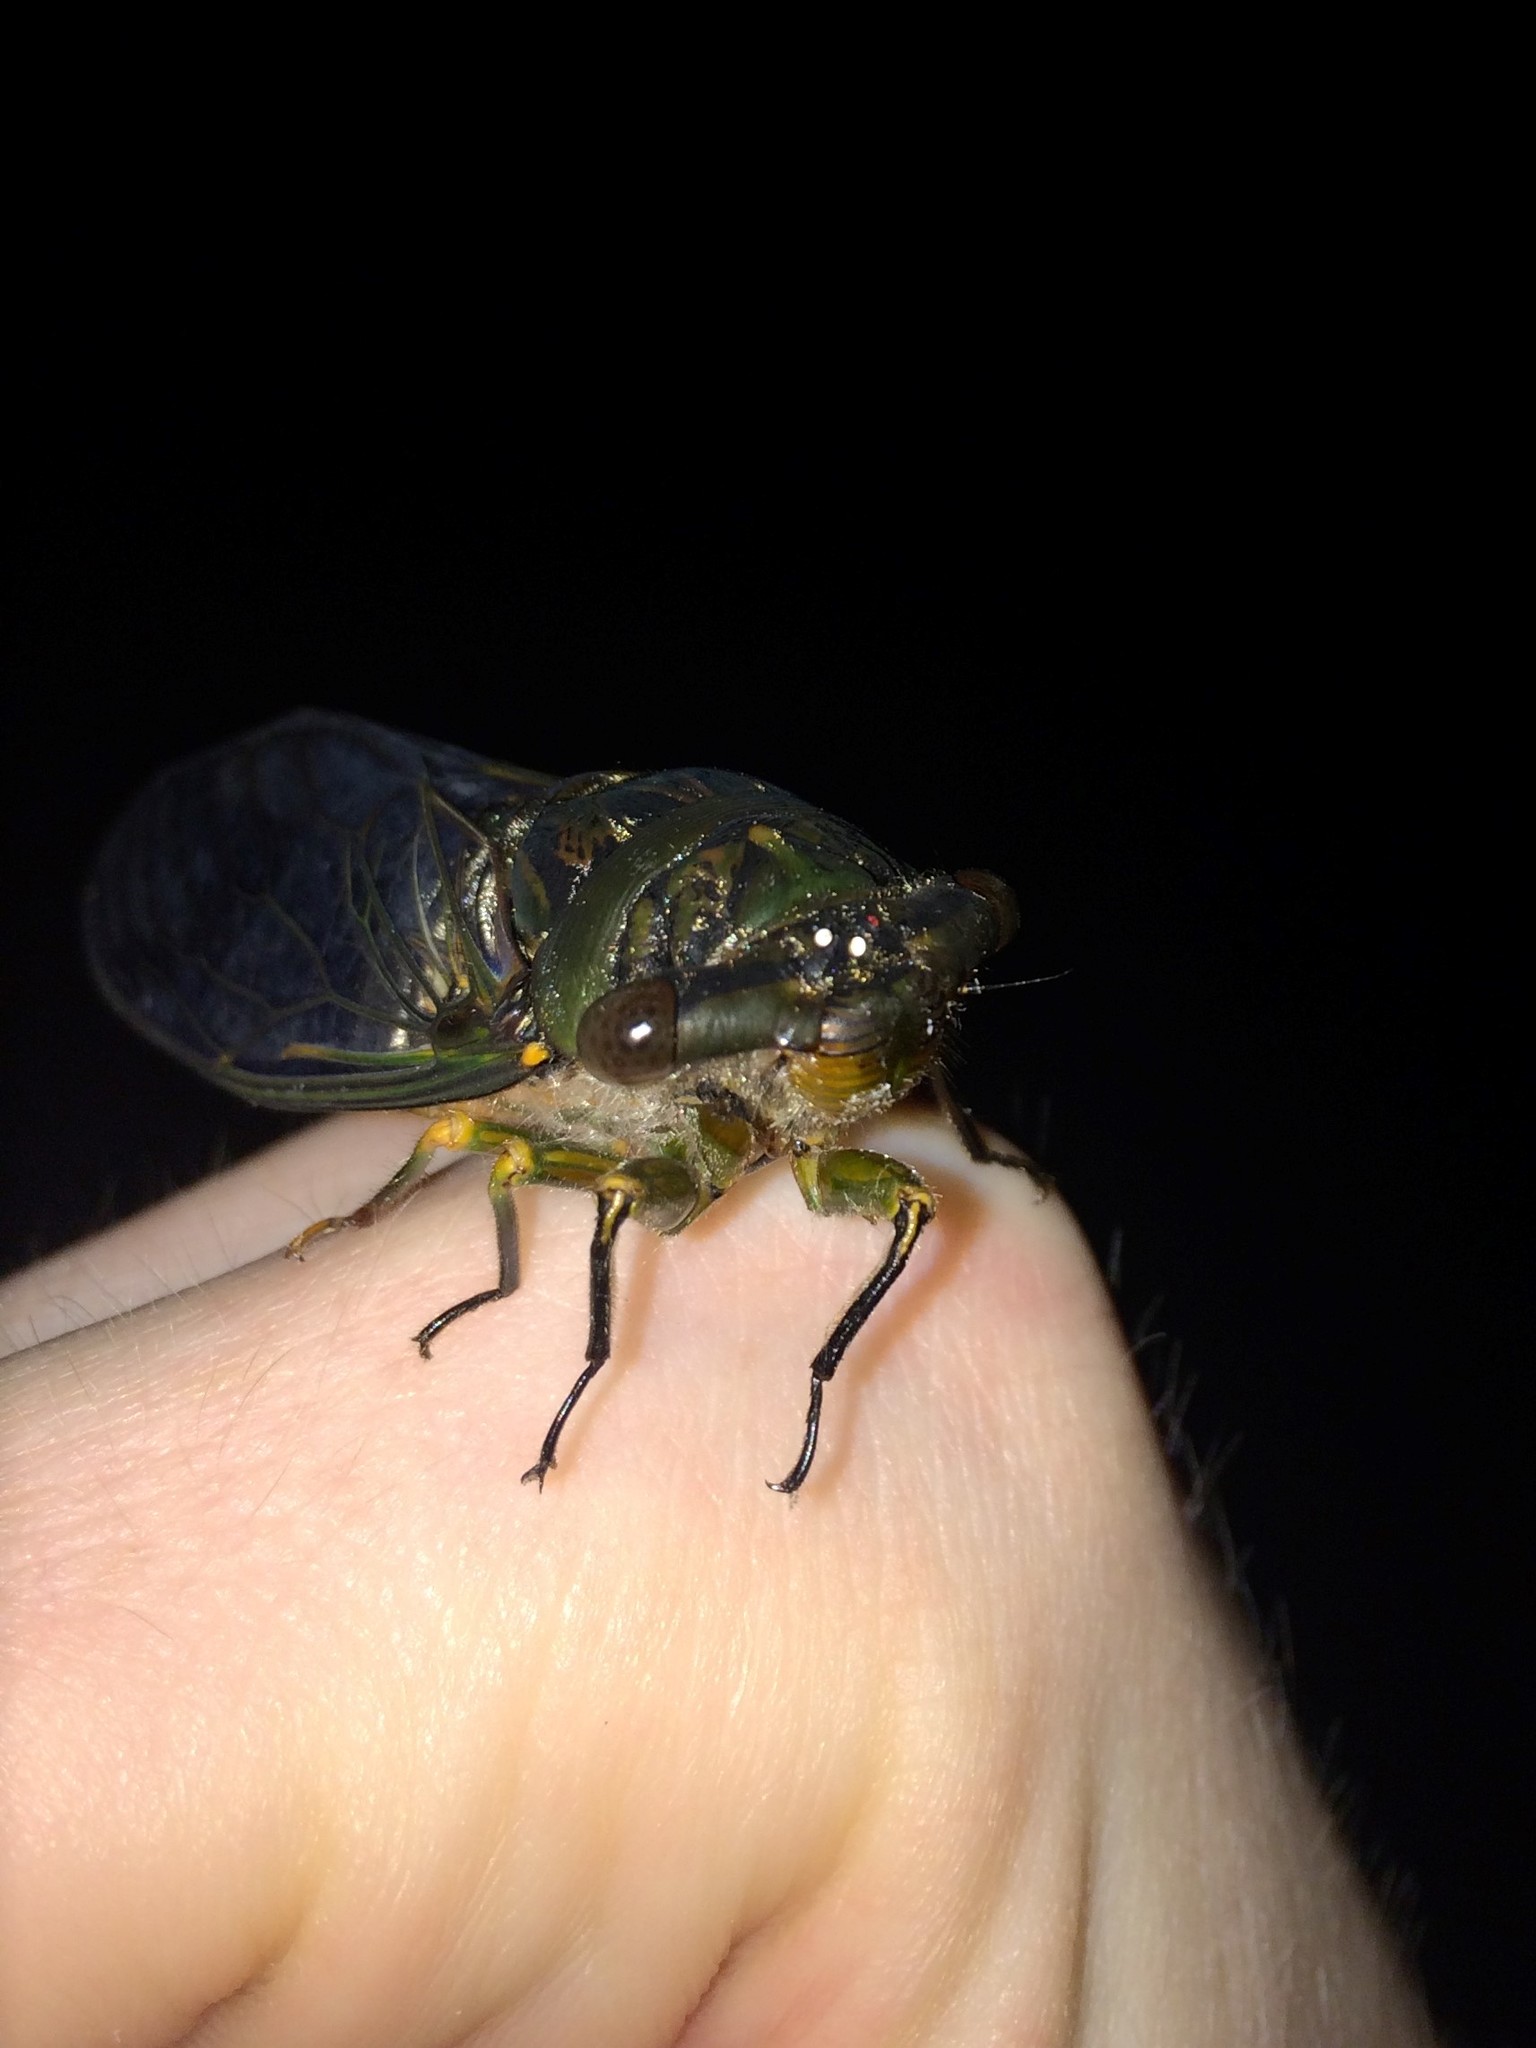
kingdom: Animalia
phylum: Arthropoda
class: Insecta
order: Hemiptera
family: Cicadidae
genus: Psaltoda
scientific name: Psaltoda plaga
